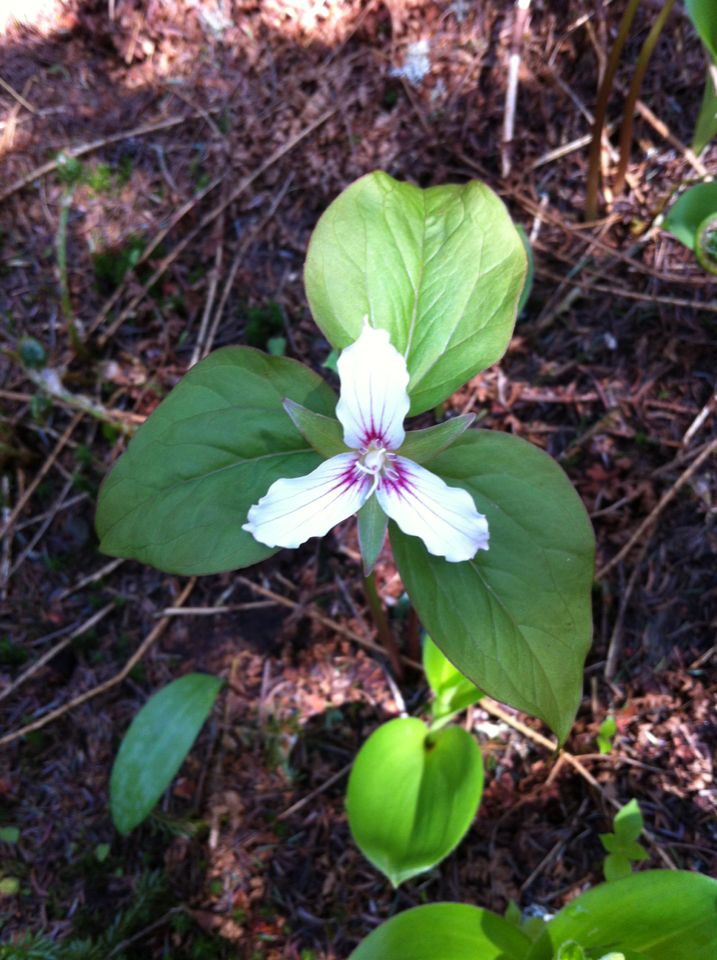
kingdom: Plantae
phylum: Tracheophyta
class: Liliopsida
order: Liliales
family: Melanthiaceae
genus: Trillium
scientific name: Trillium undulatum
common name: Paint trillium
